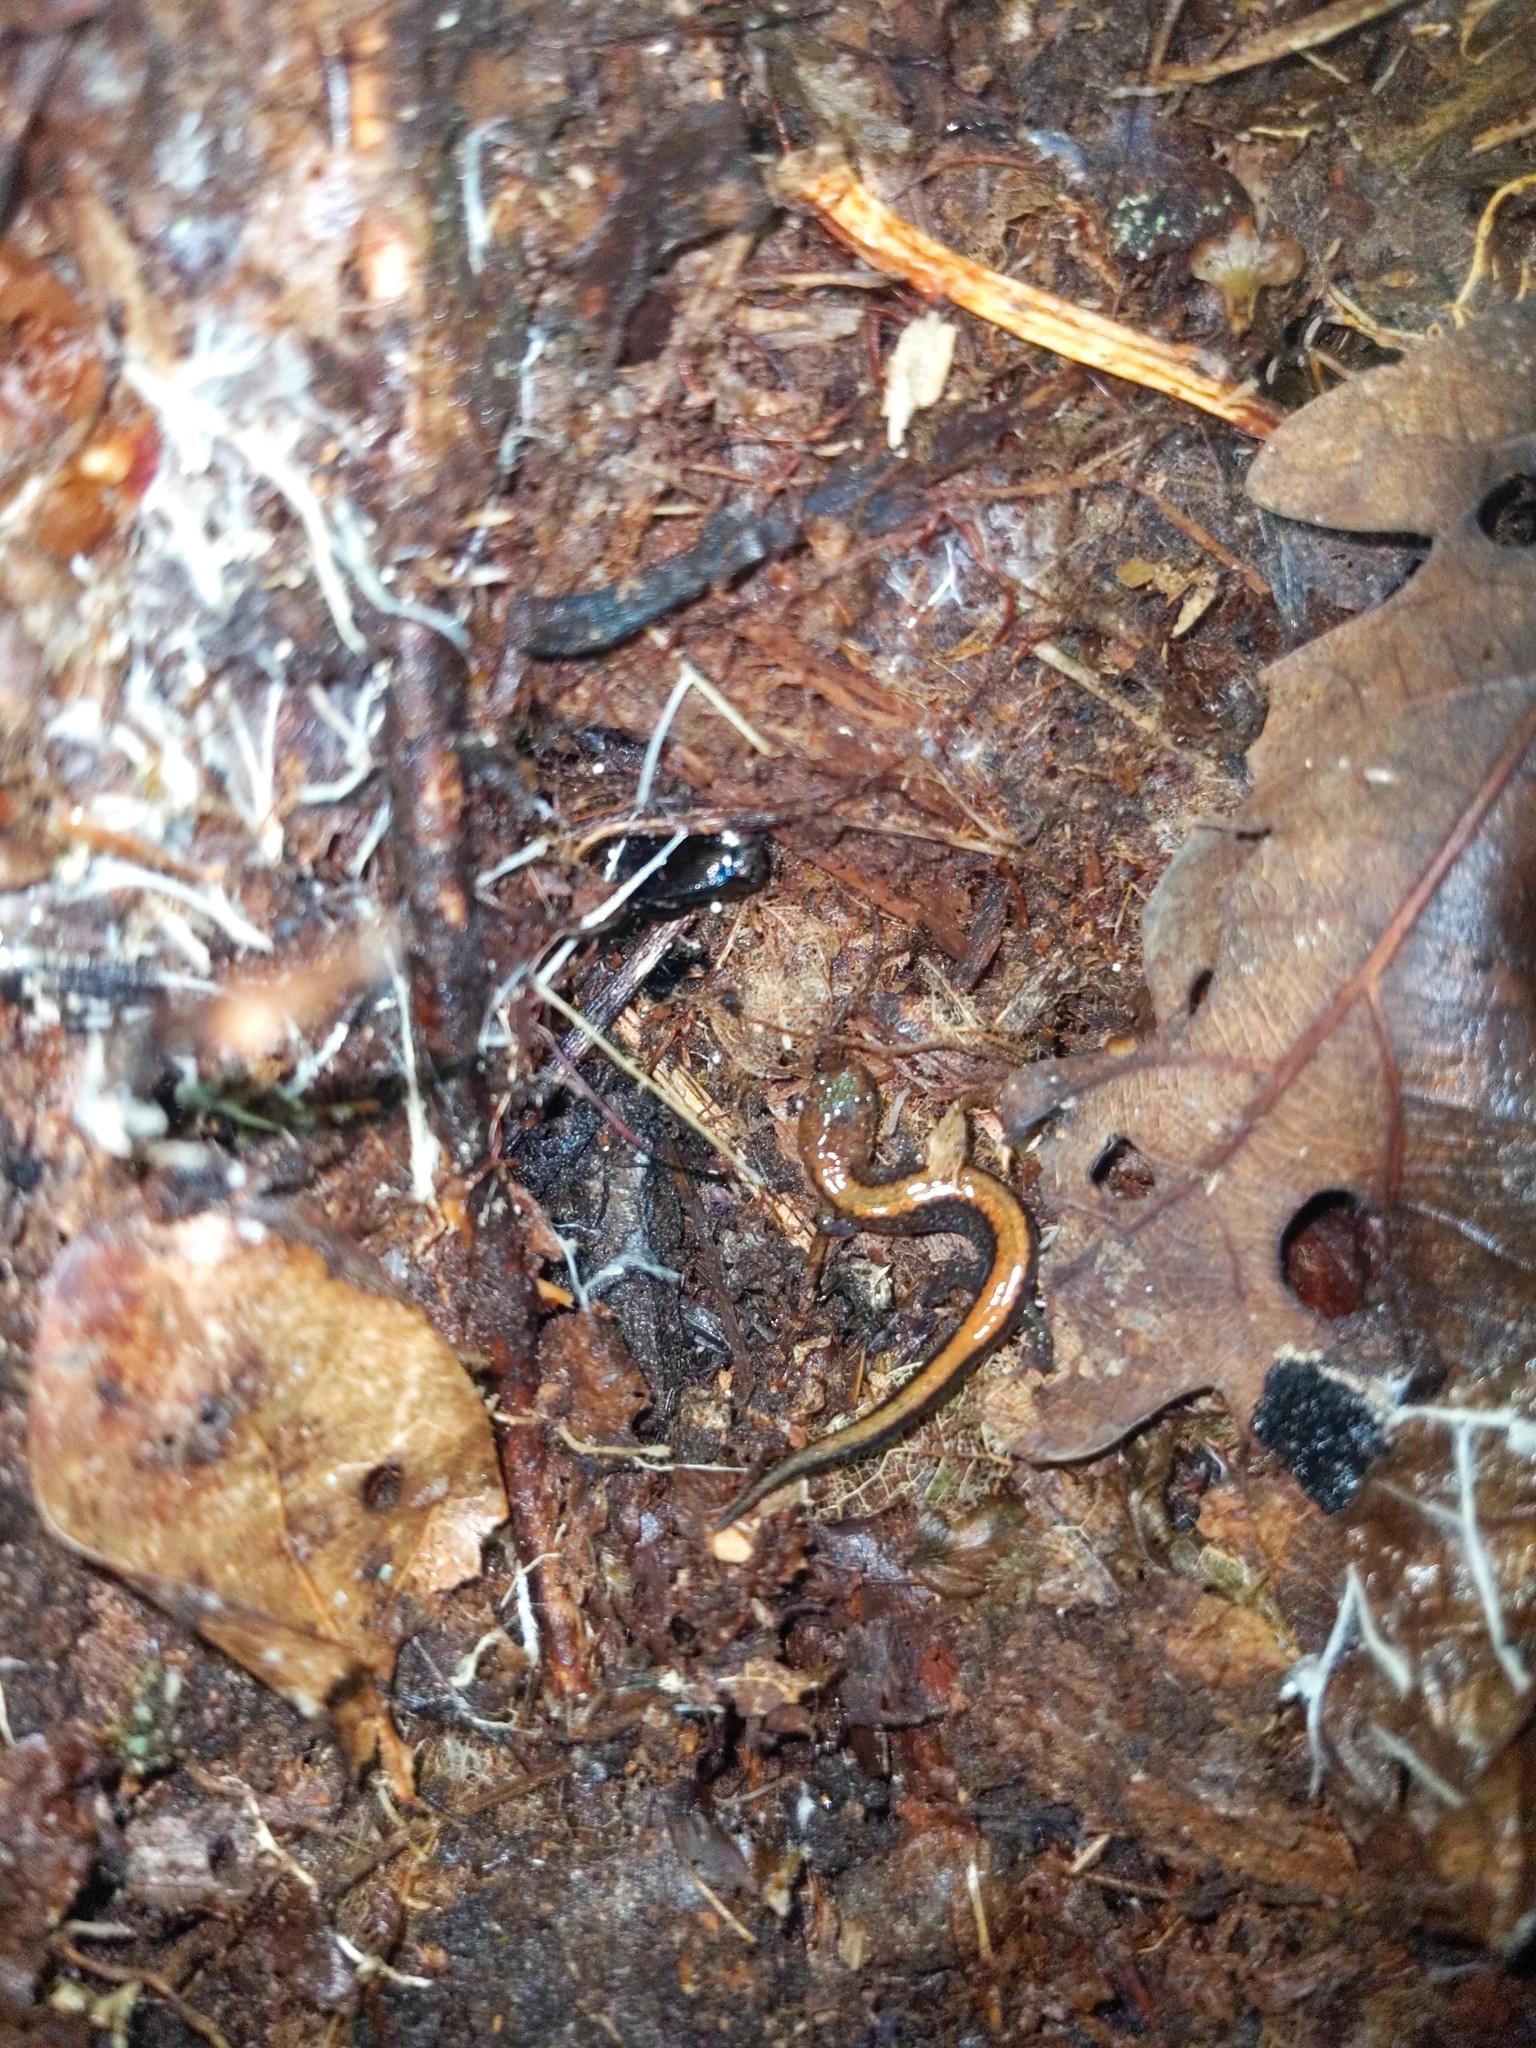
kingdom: Animalia
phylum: Chordata
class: Amphibia
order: Caudata
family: Plethodontidae
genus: Plethodon
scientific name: Plethodon cinereus
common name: Redback salamander
